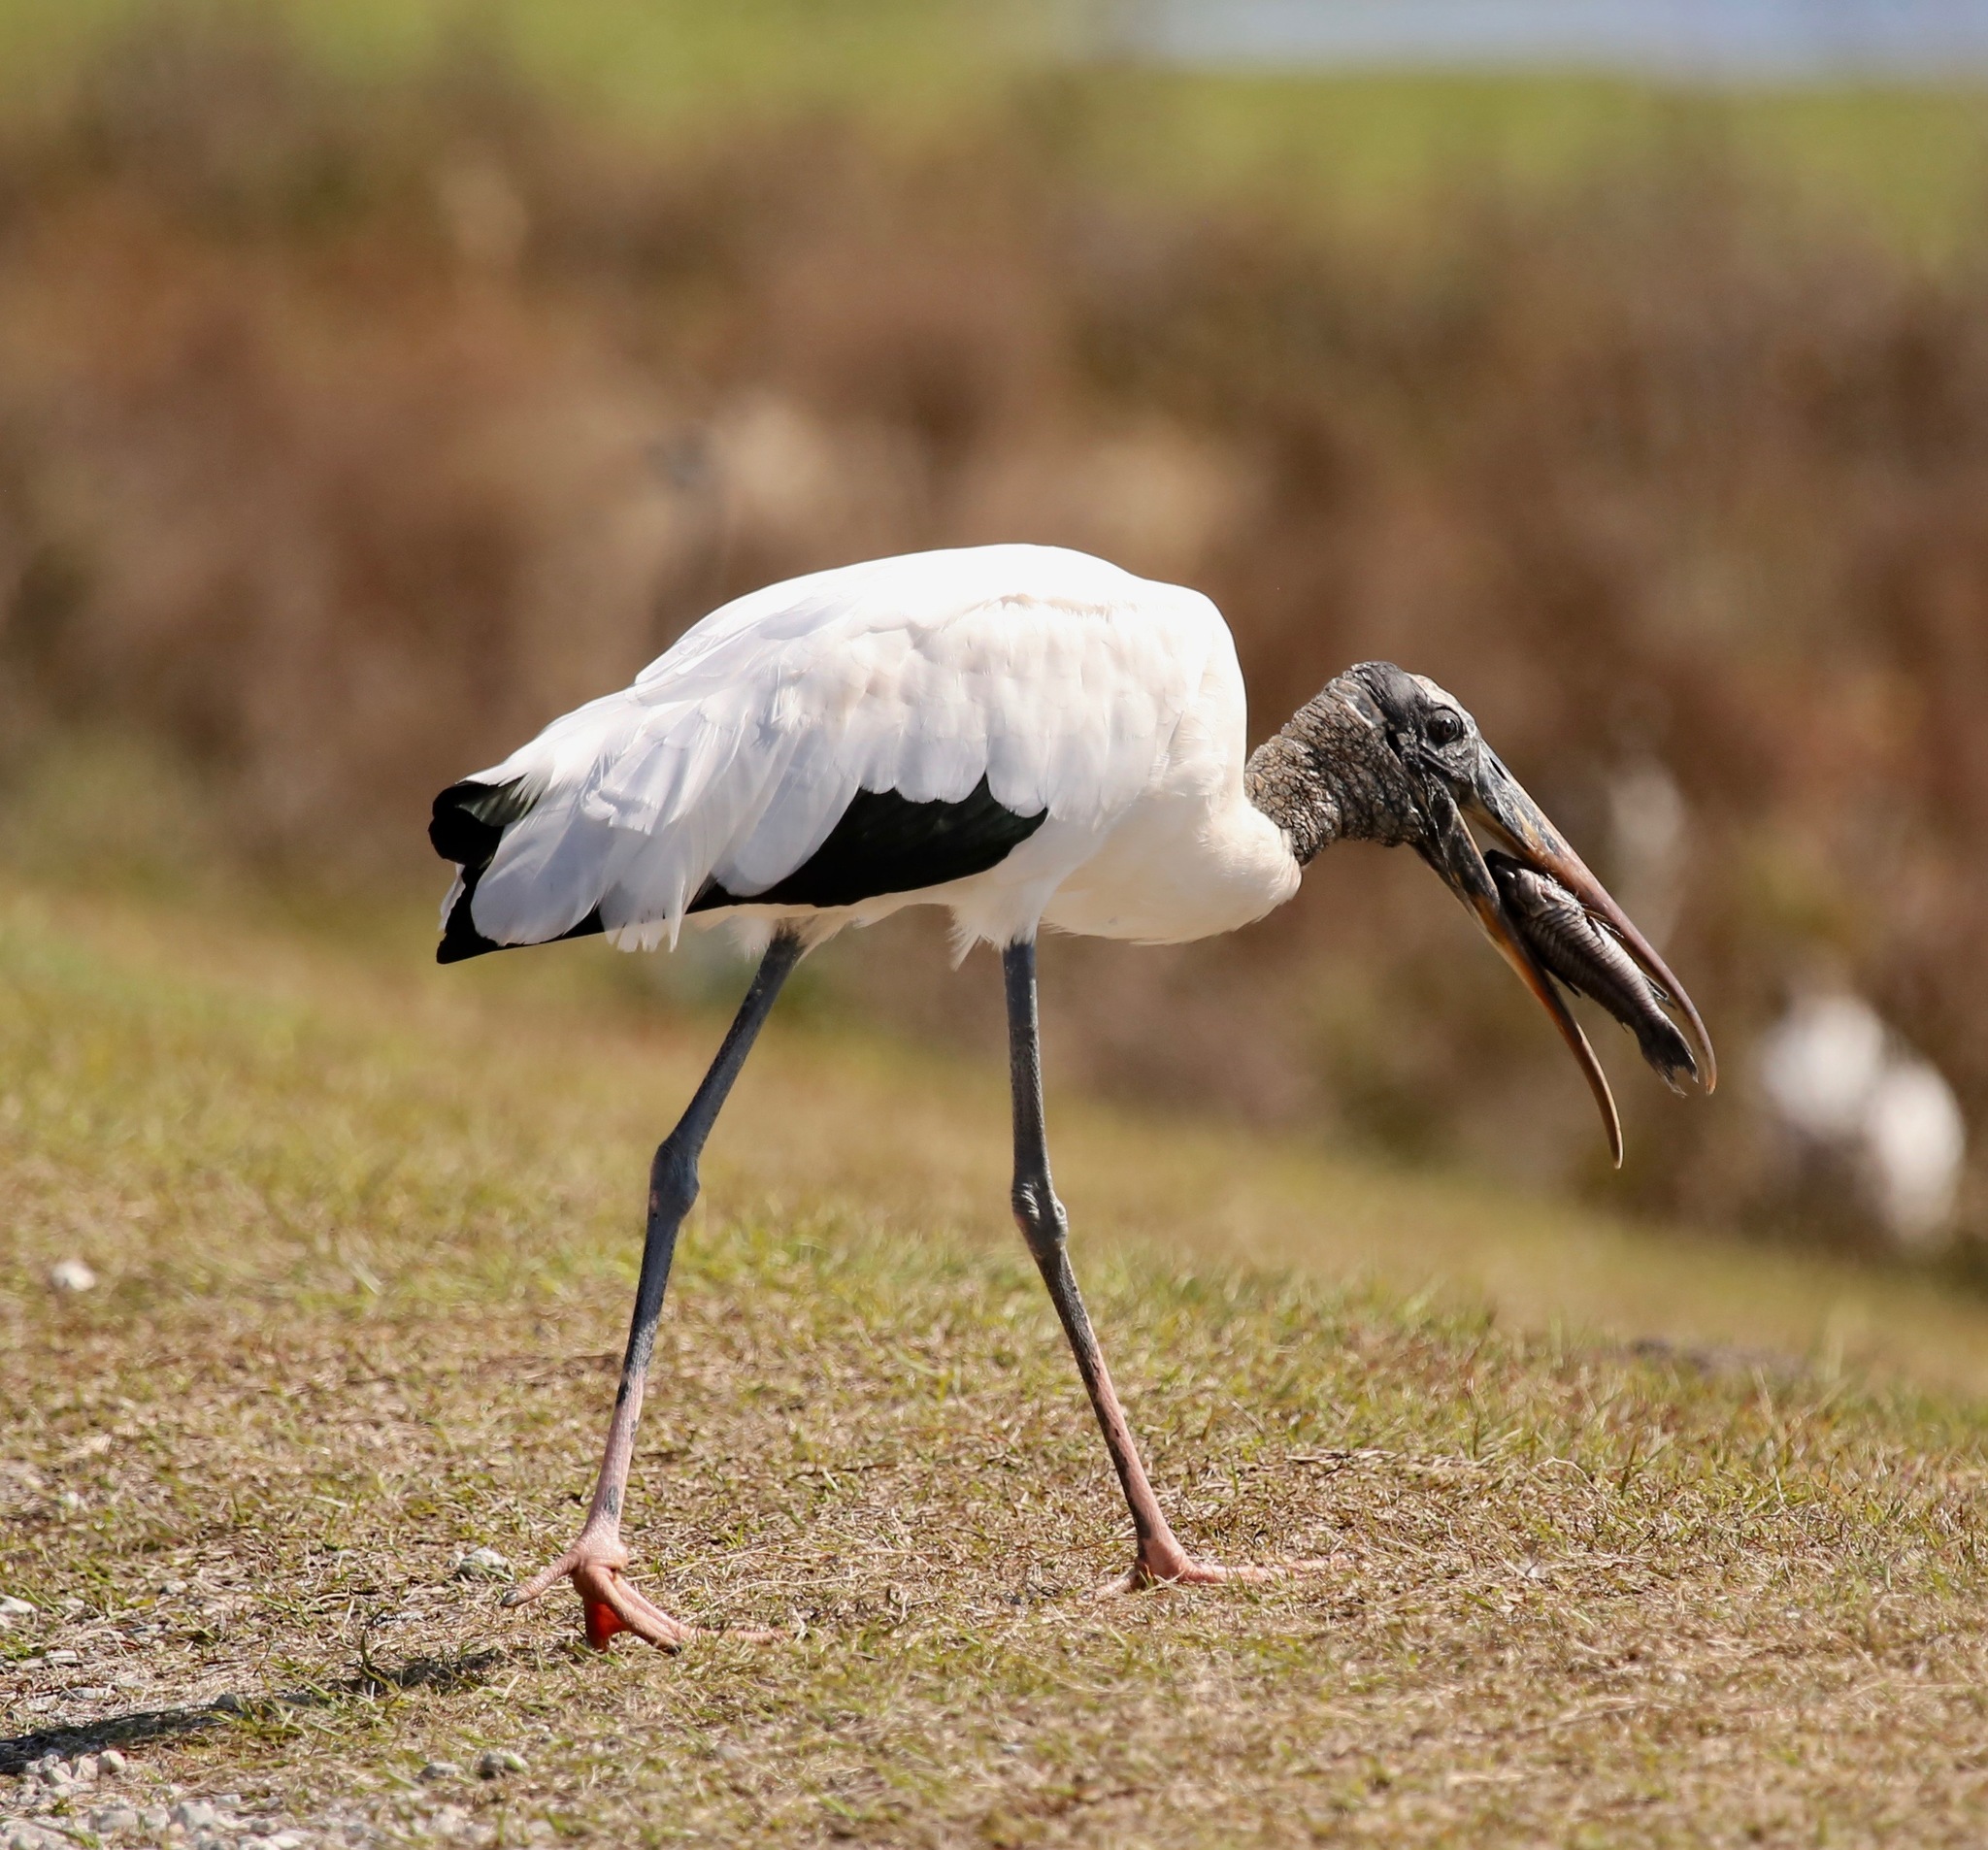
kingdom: Animalia
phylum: Chordata
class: Aves
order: Ciconiiformes
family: Ciconiidae
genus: Mycteria
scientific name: Mycteria americana
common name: Wood stork
